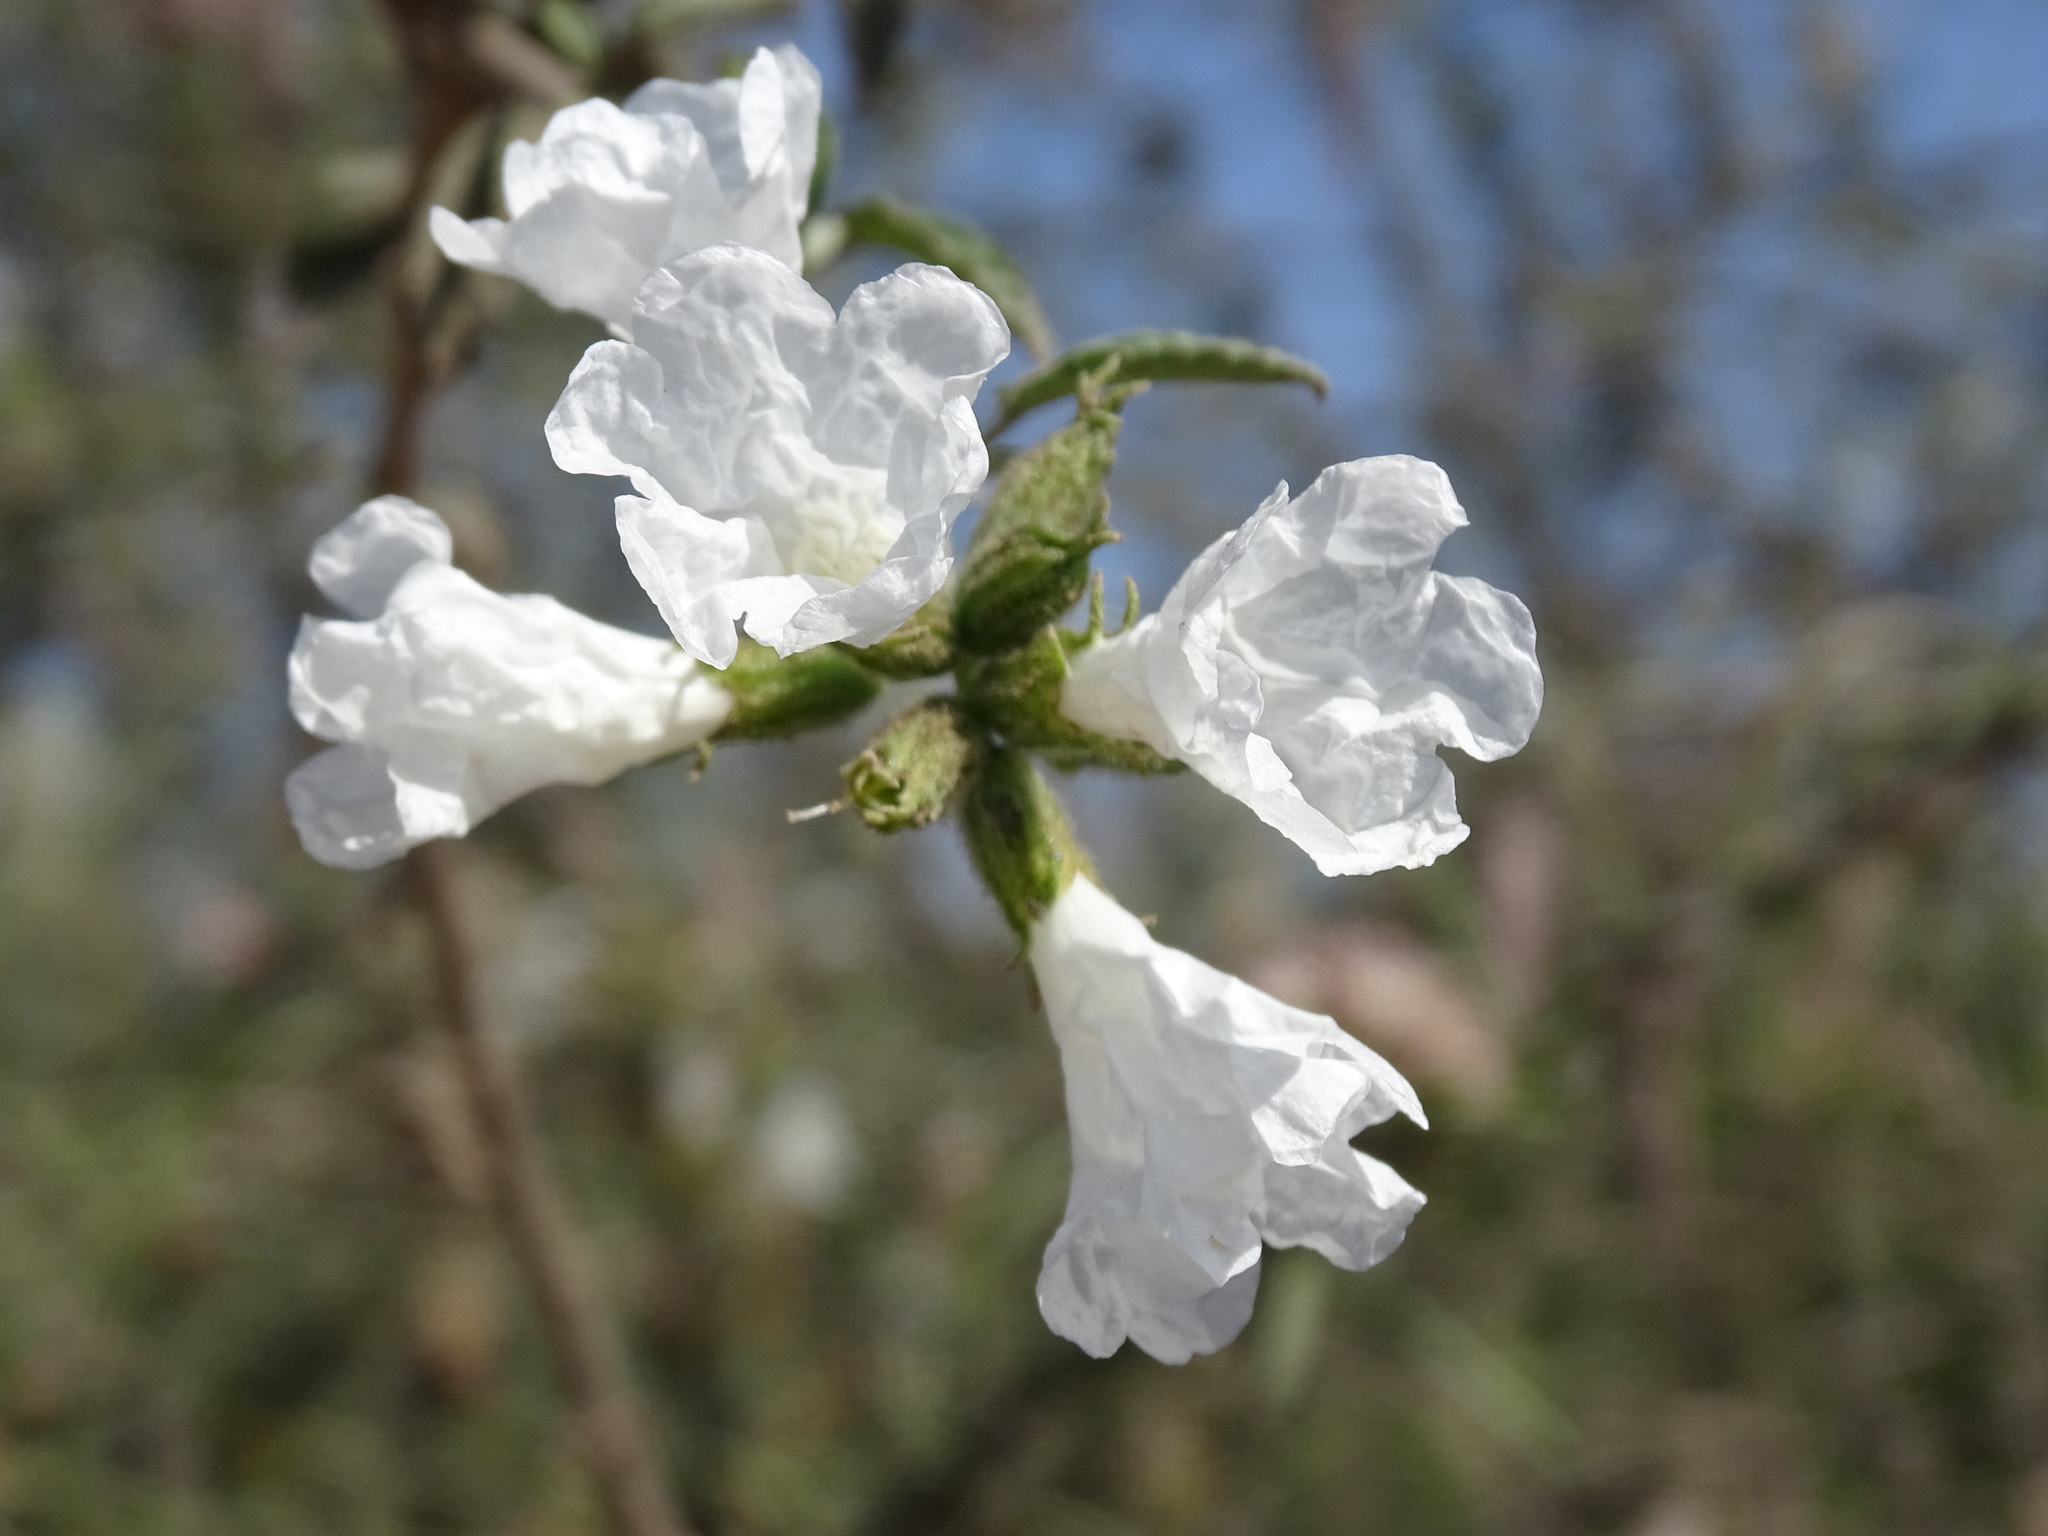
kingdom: Plantae
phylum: Tracheophyta
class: Magnoliopsida
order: Boraginales
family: Cordiaceae
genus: Cordia
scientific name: Cordia parvifolia
